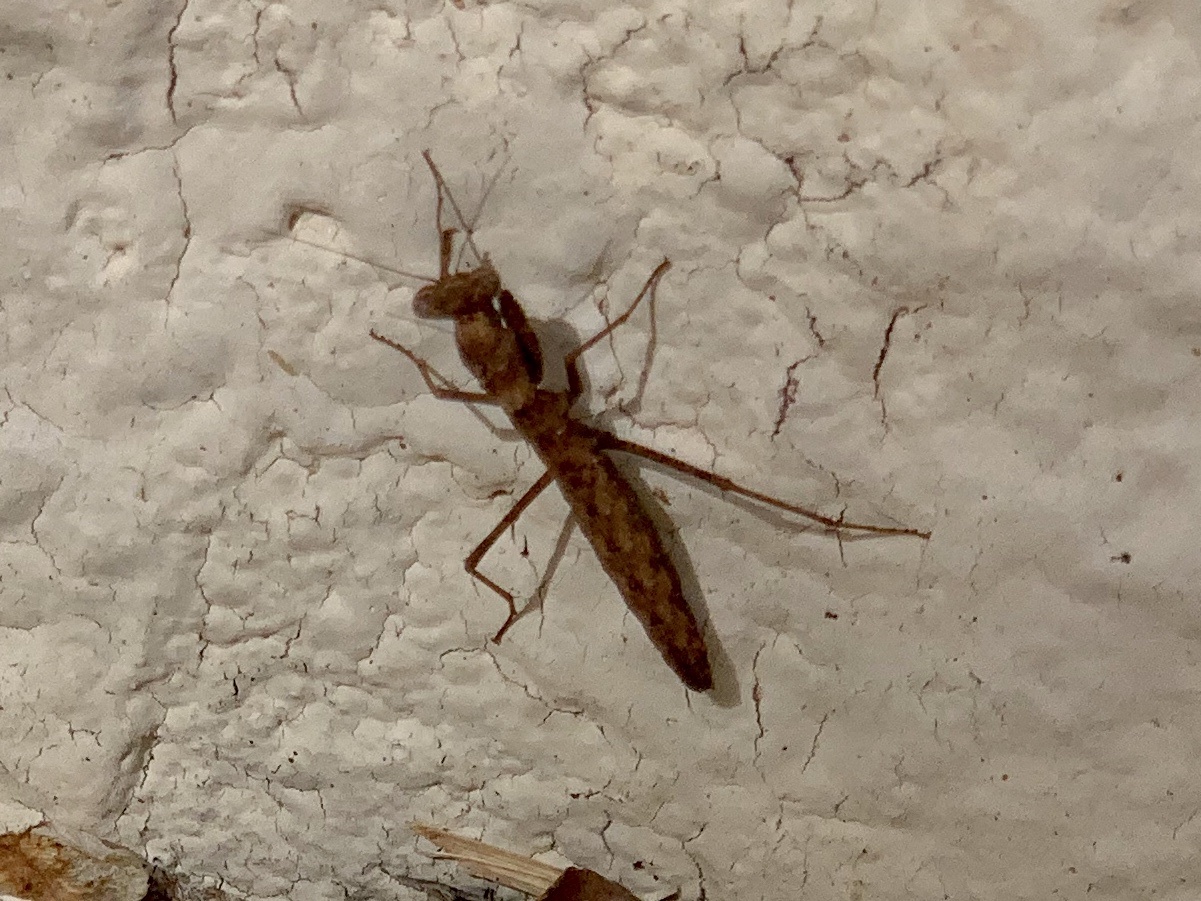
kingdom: Animalia
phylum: Arthropoda
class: Insecta
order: Mantodea
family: Amelidae
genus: Litaneutria
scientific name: Litaneutria skinneri
